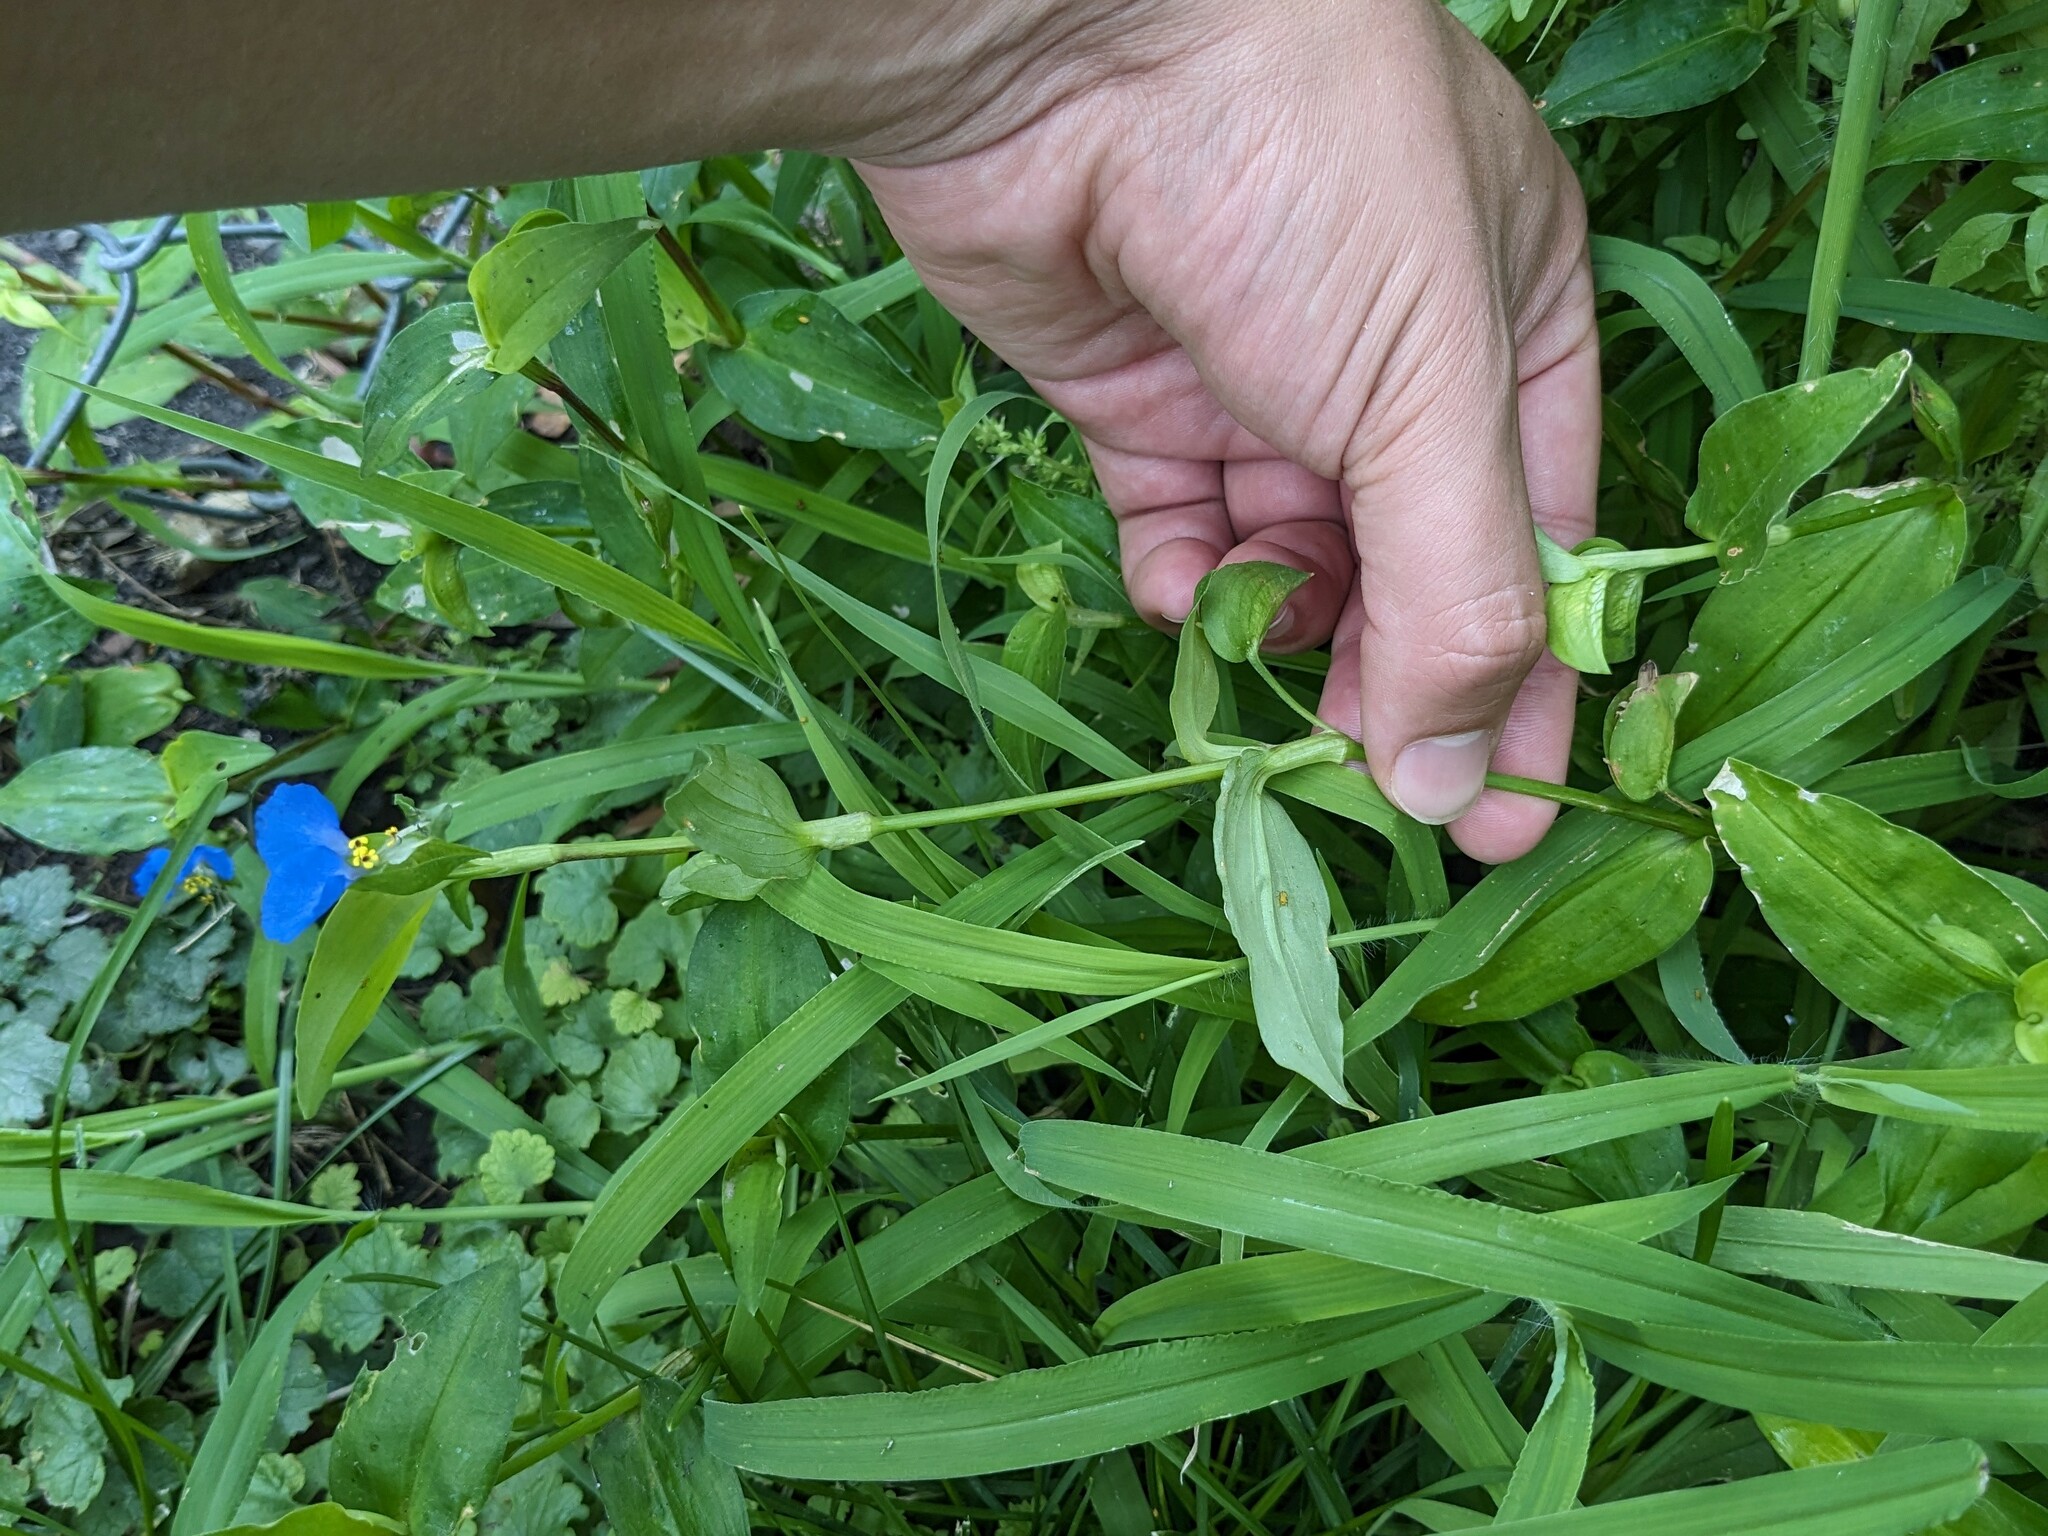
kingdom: Plantae
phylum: Tracheophyta
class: Liliopsida
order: Commelinales
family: Commelinaceae
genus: Commelina
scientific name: Commelina communis
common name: Asiatic dayflower
